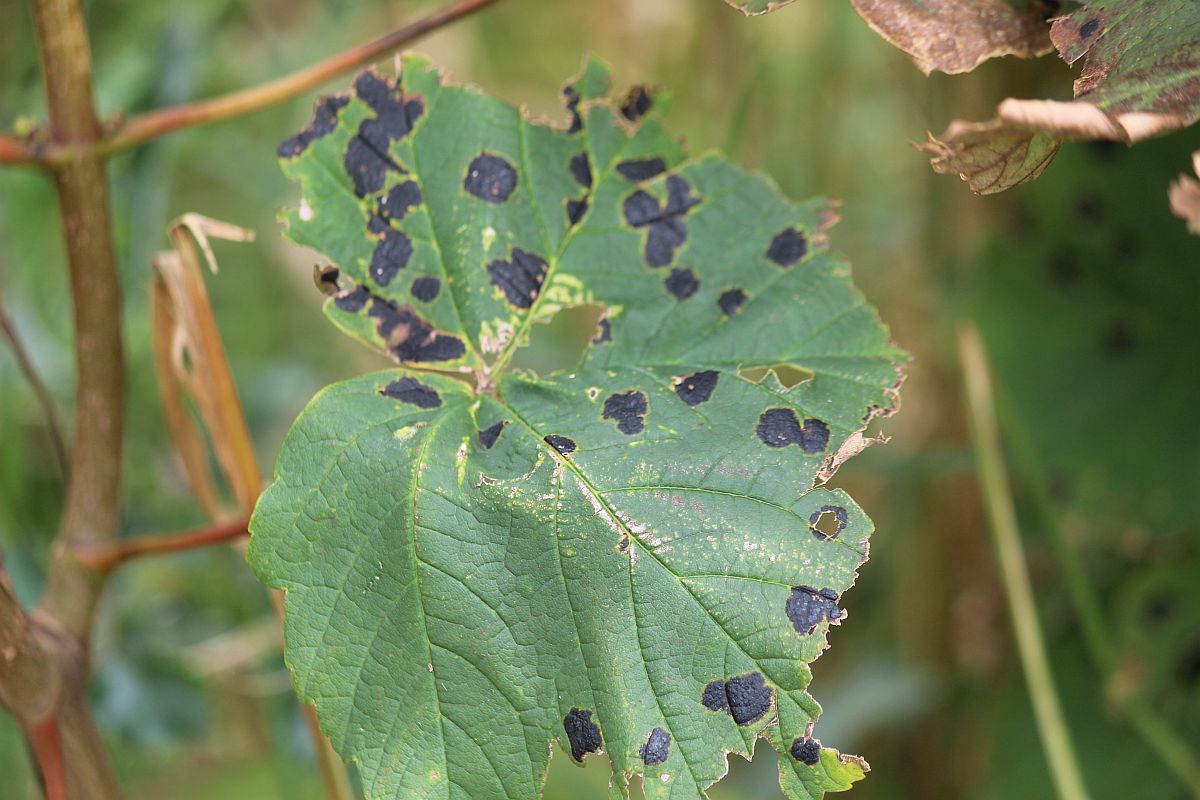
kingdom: Fungi
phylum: Ascomycota
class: Leotiomycetes
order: Rhytismatales
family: Rhytismataceae
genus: Rhytisma
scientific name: Rhytisma acerinum
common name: European tar spot
